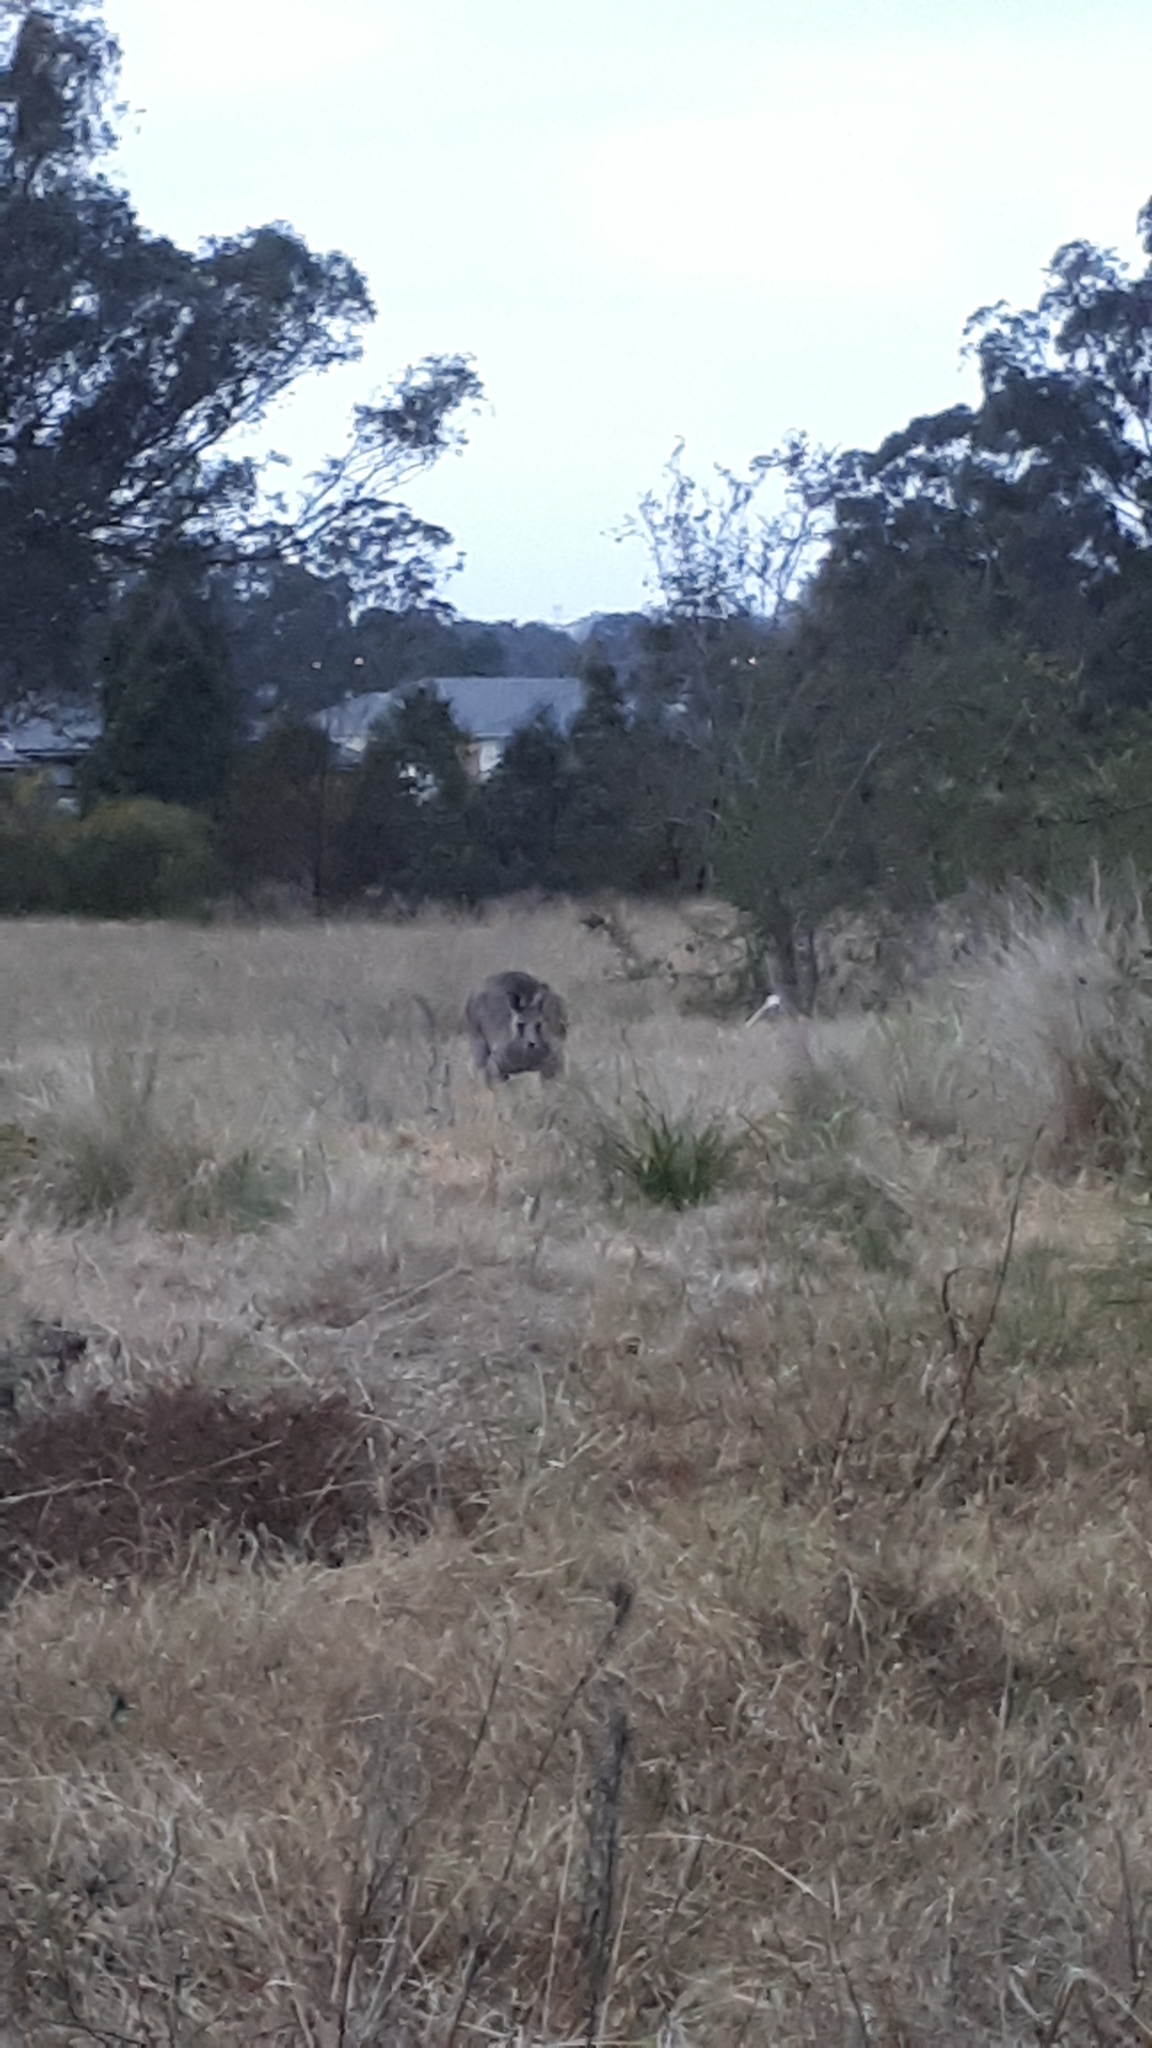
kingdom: Animalia
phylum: Chordata
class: Mammalia
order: Diprotodontia
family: Macropodidae
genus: Macropus
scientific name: Macropus giganteus
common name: Eastern grey kangaroo
